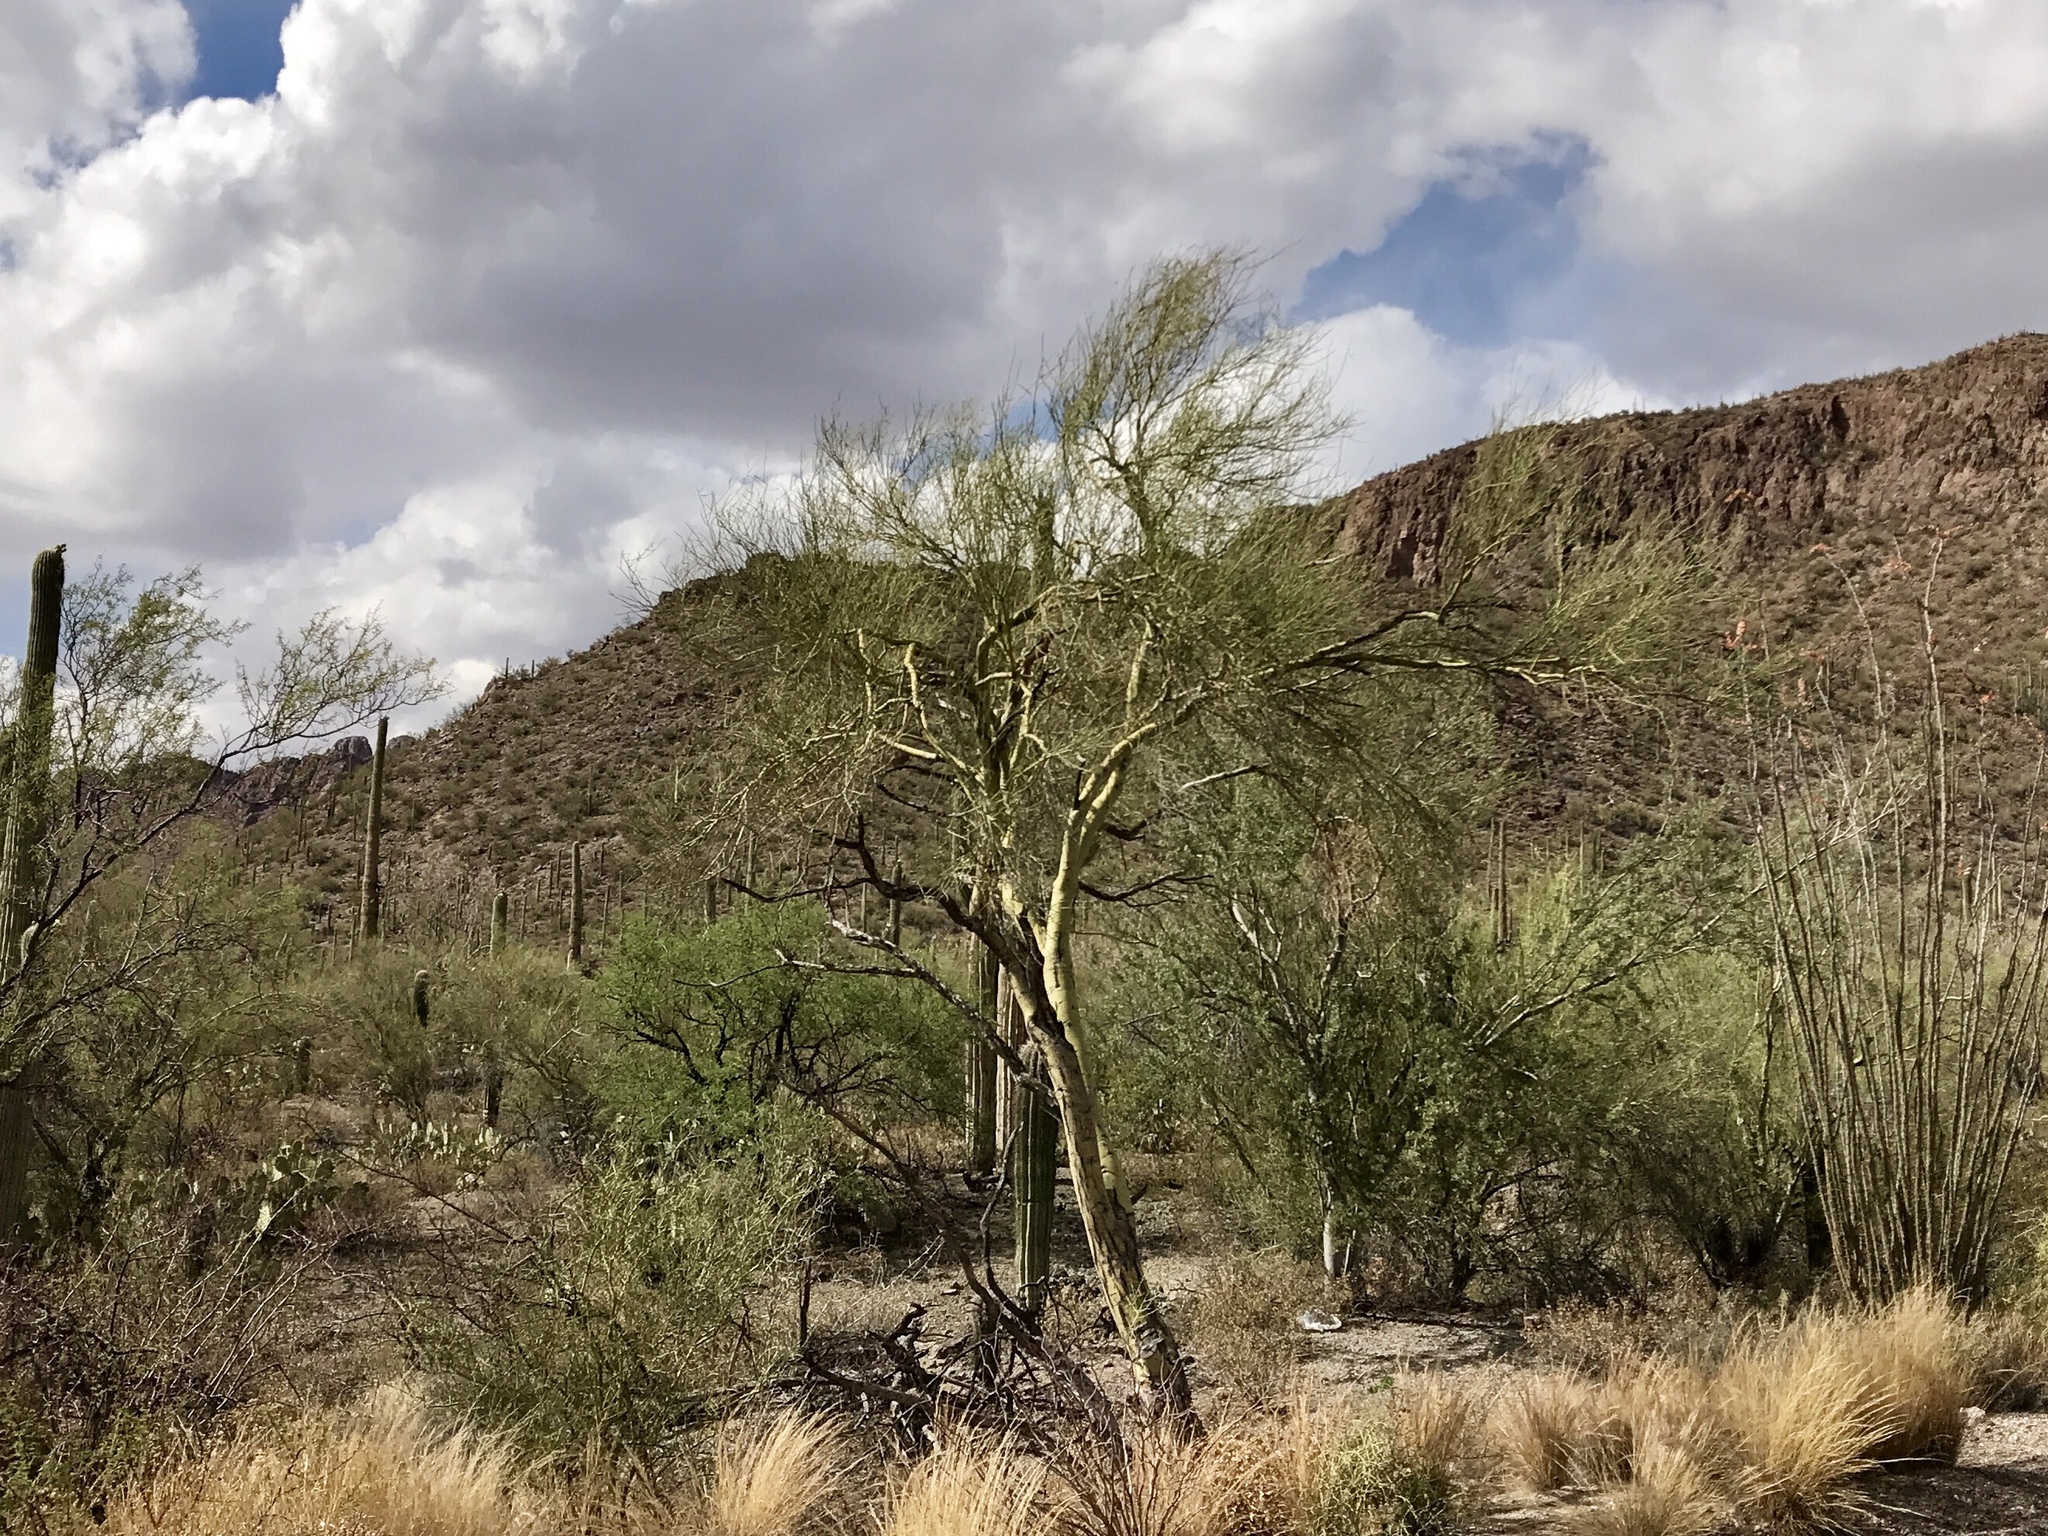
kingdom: Plantae
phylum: Tracheophyta
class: Magnoliopsida
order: Fabales
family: Fabaceae
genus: Parkinsonia
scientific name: Parkinsonia microphylla
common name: Yellow paloverde
